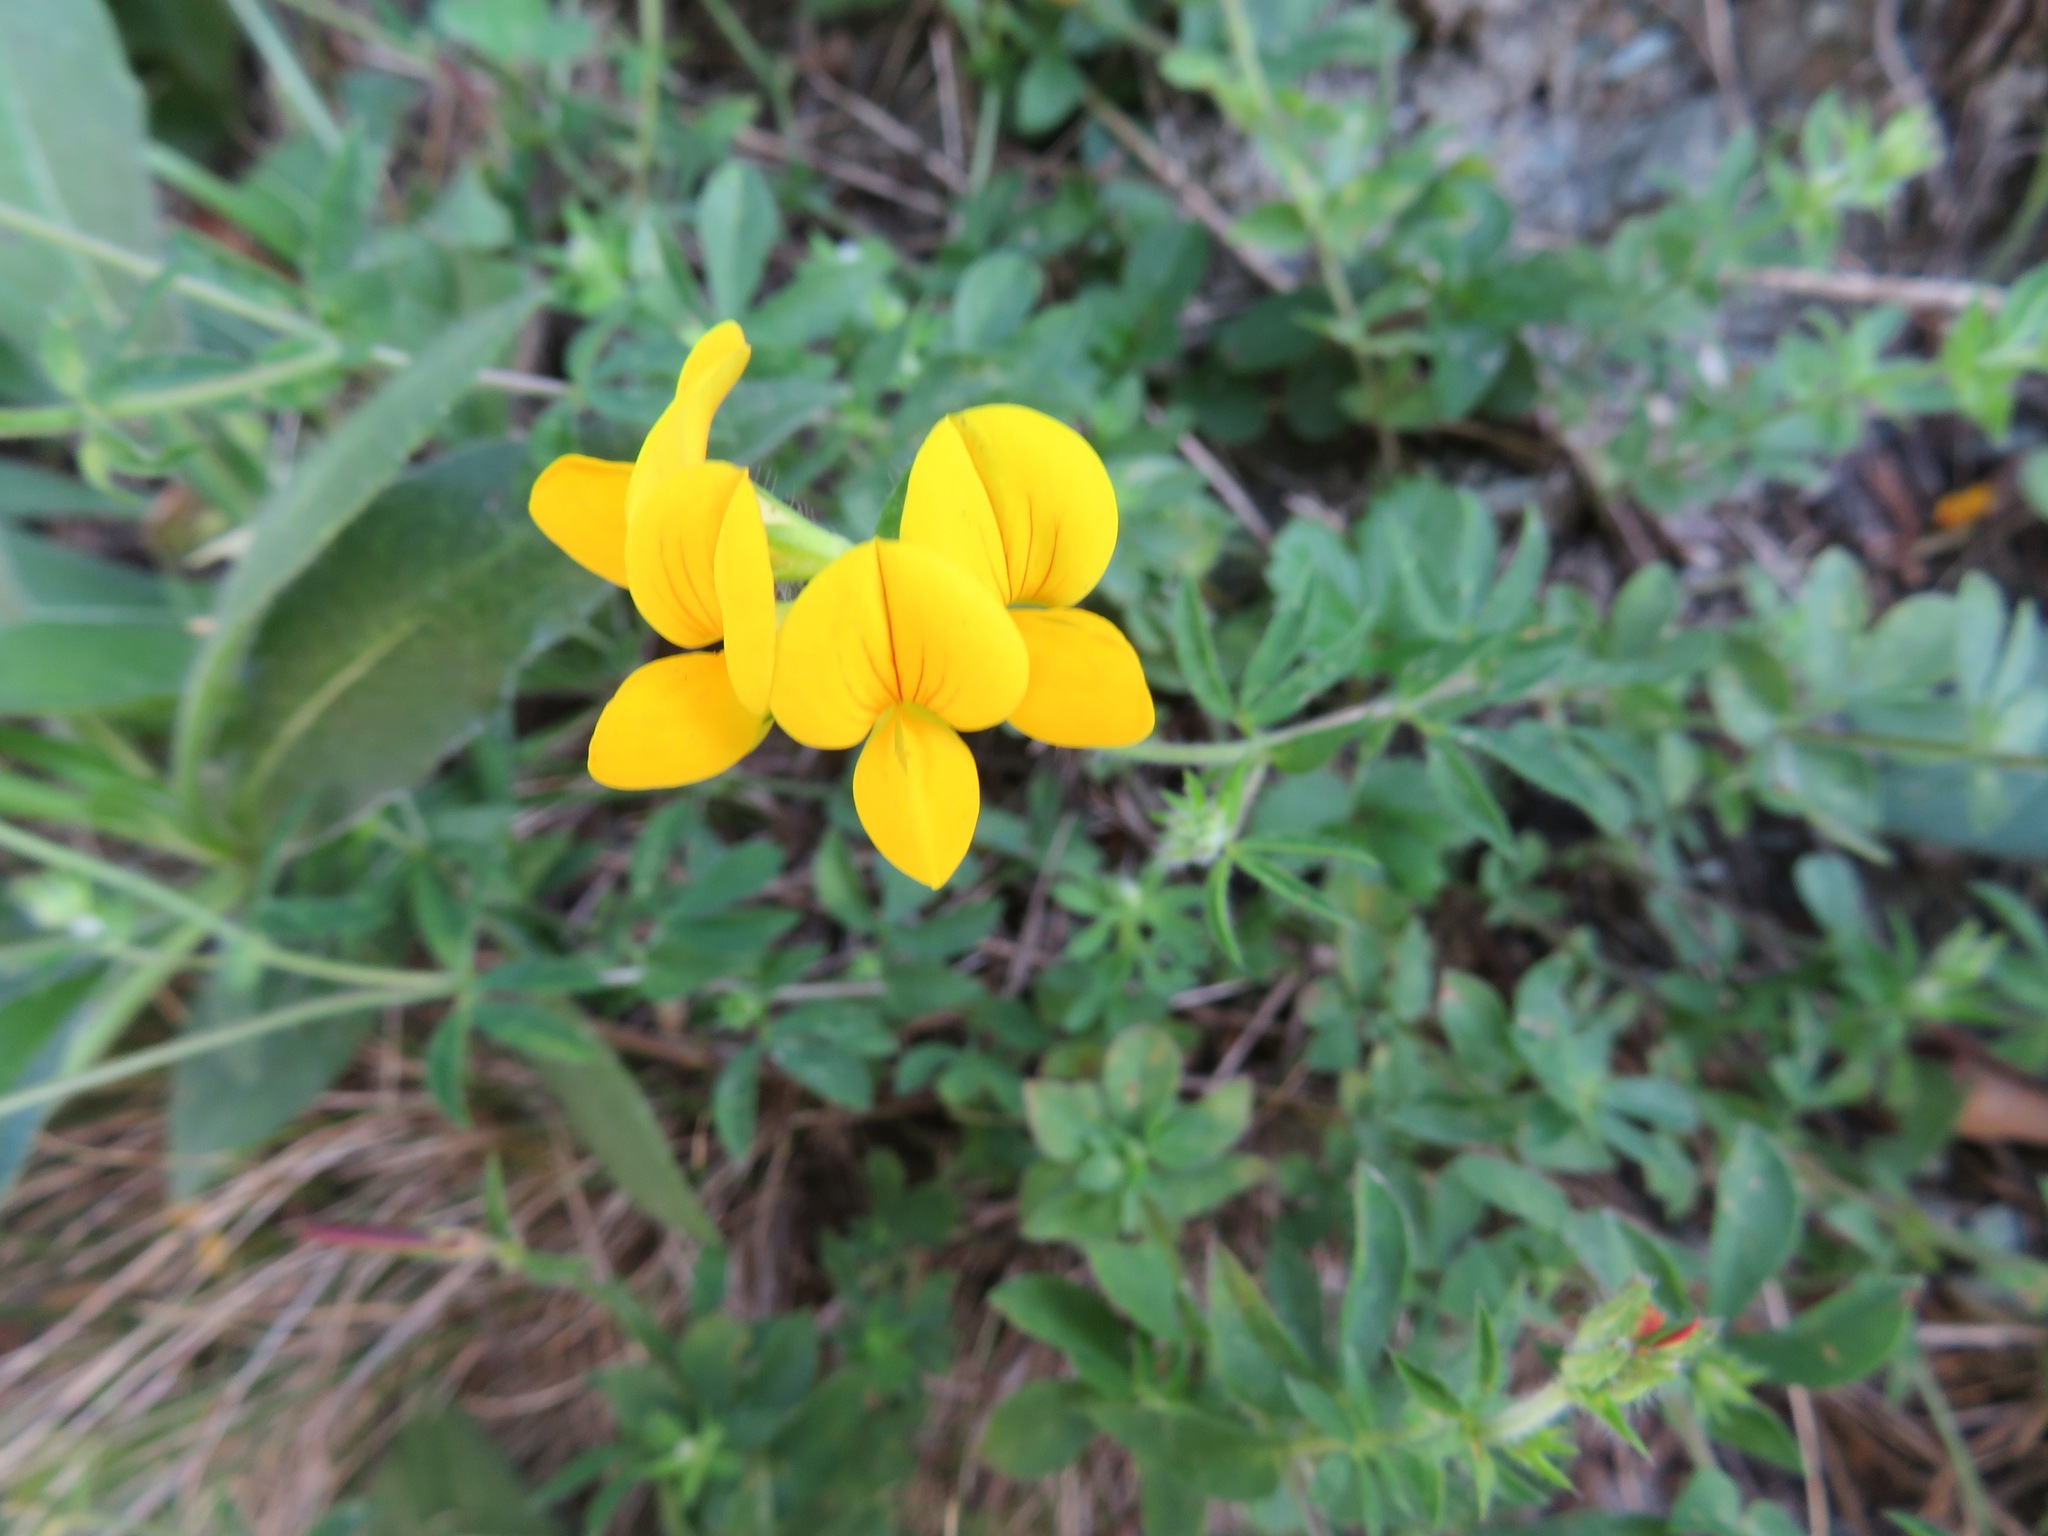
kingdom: Plantae
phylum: Tracheophyta
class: Magnoliopsida
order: Fabales
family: Fabaceae
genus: Lotus
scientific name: Lotus corniculatus
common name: Common bird's-foot-trefoil
